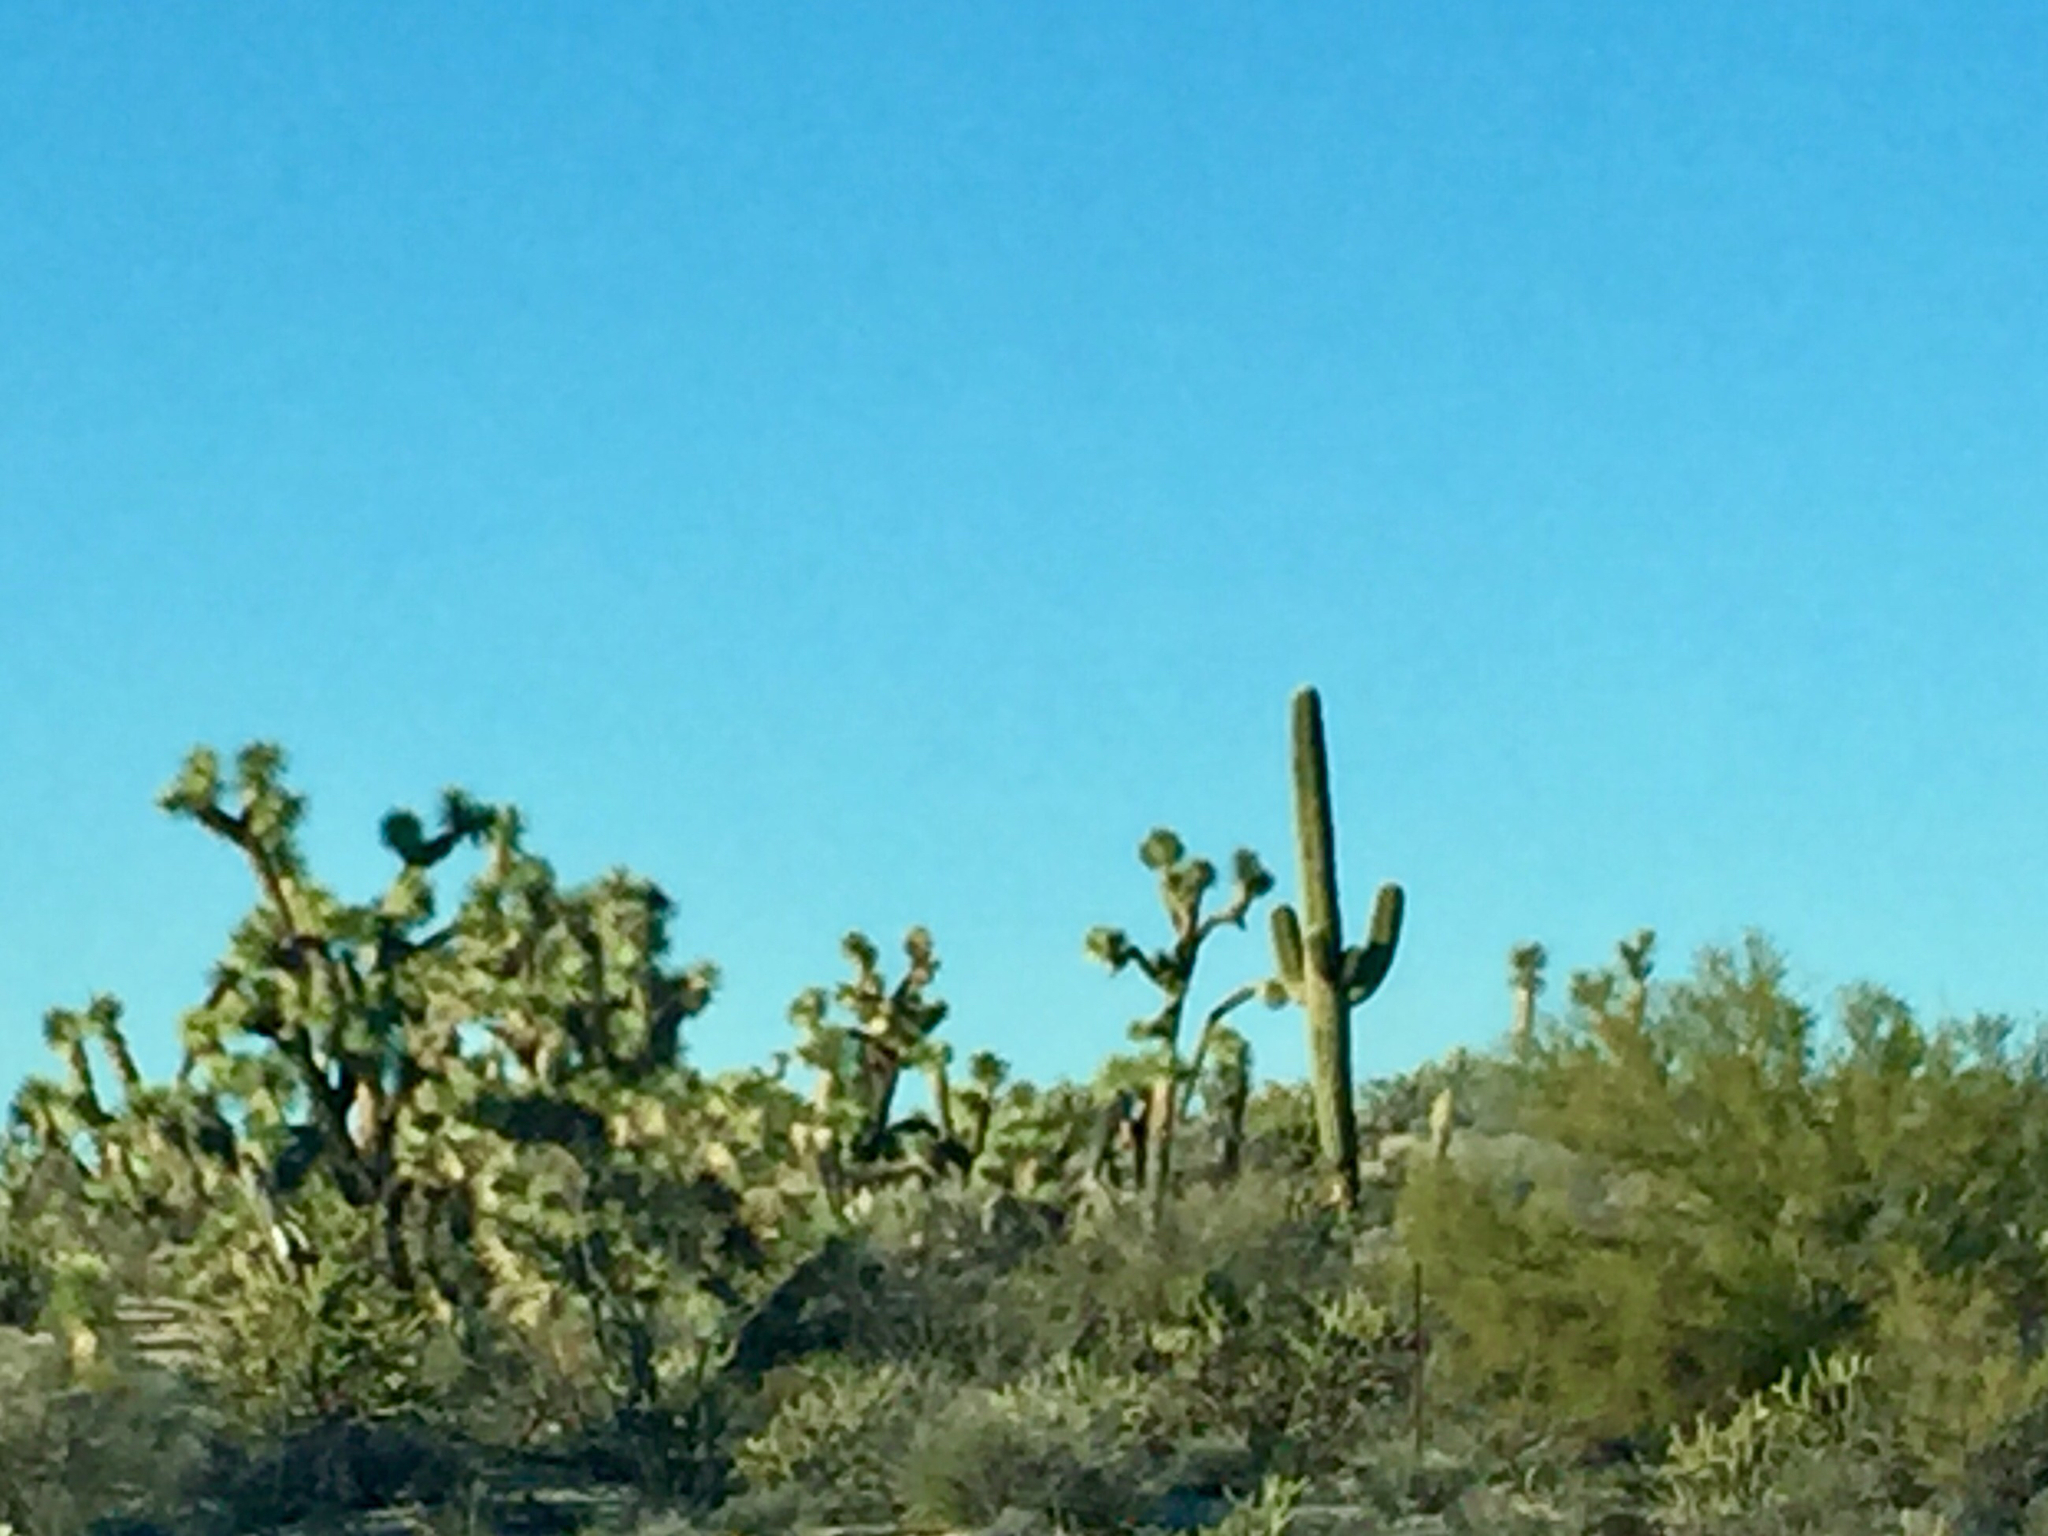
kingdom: Plantae
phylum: Tracheophyta
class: Magnoliopsida
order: Caryophyllales
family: Cactaceae
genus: Carnegiea
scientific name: Carnegiea gigantea
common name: Saguaro
